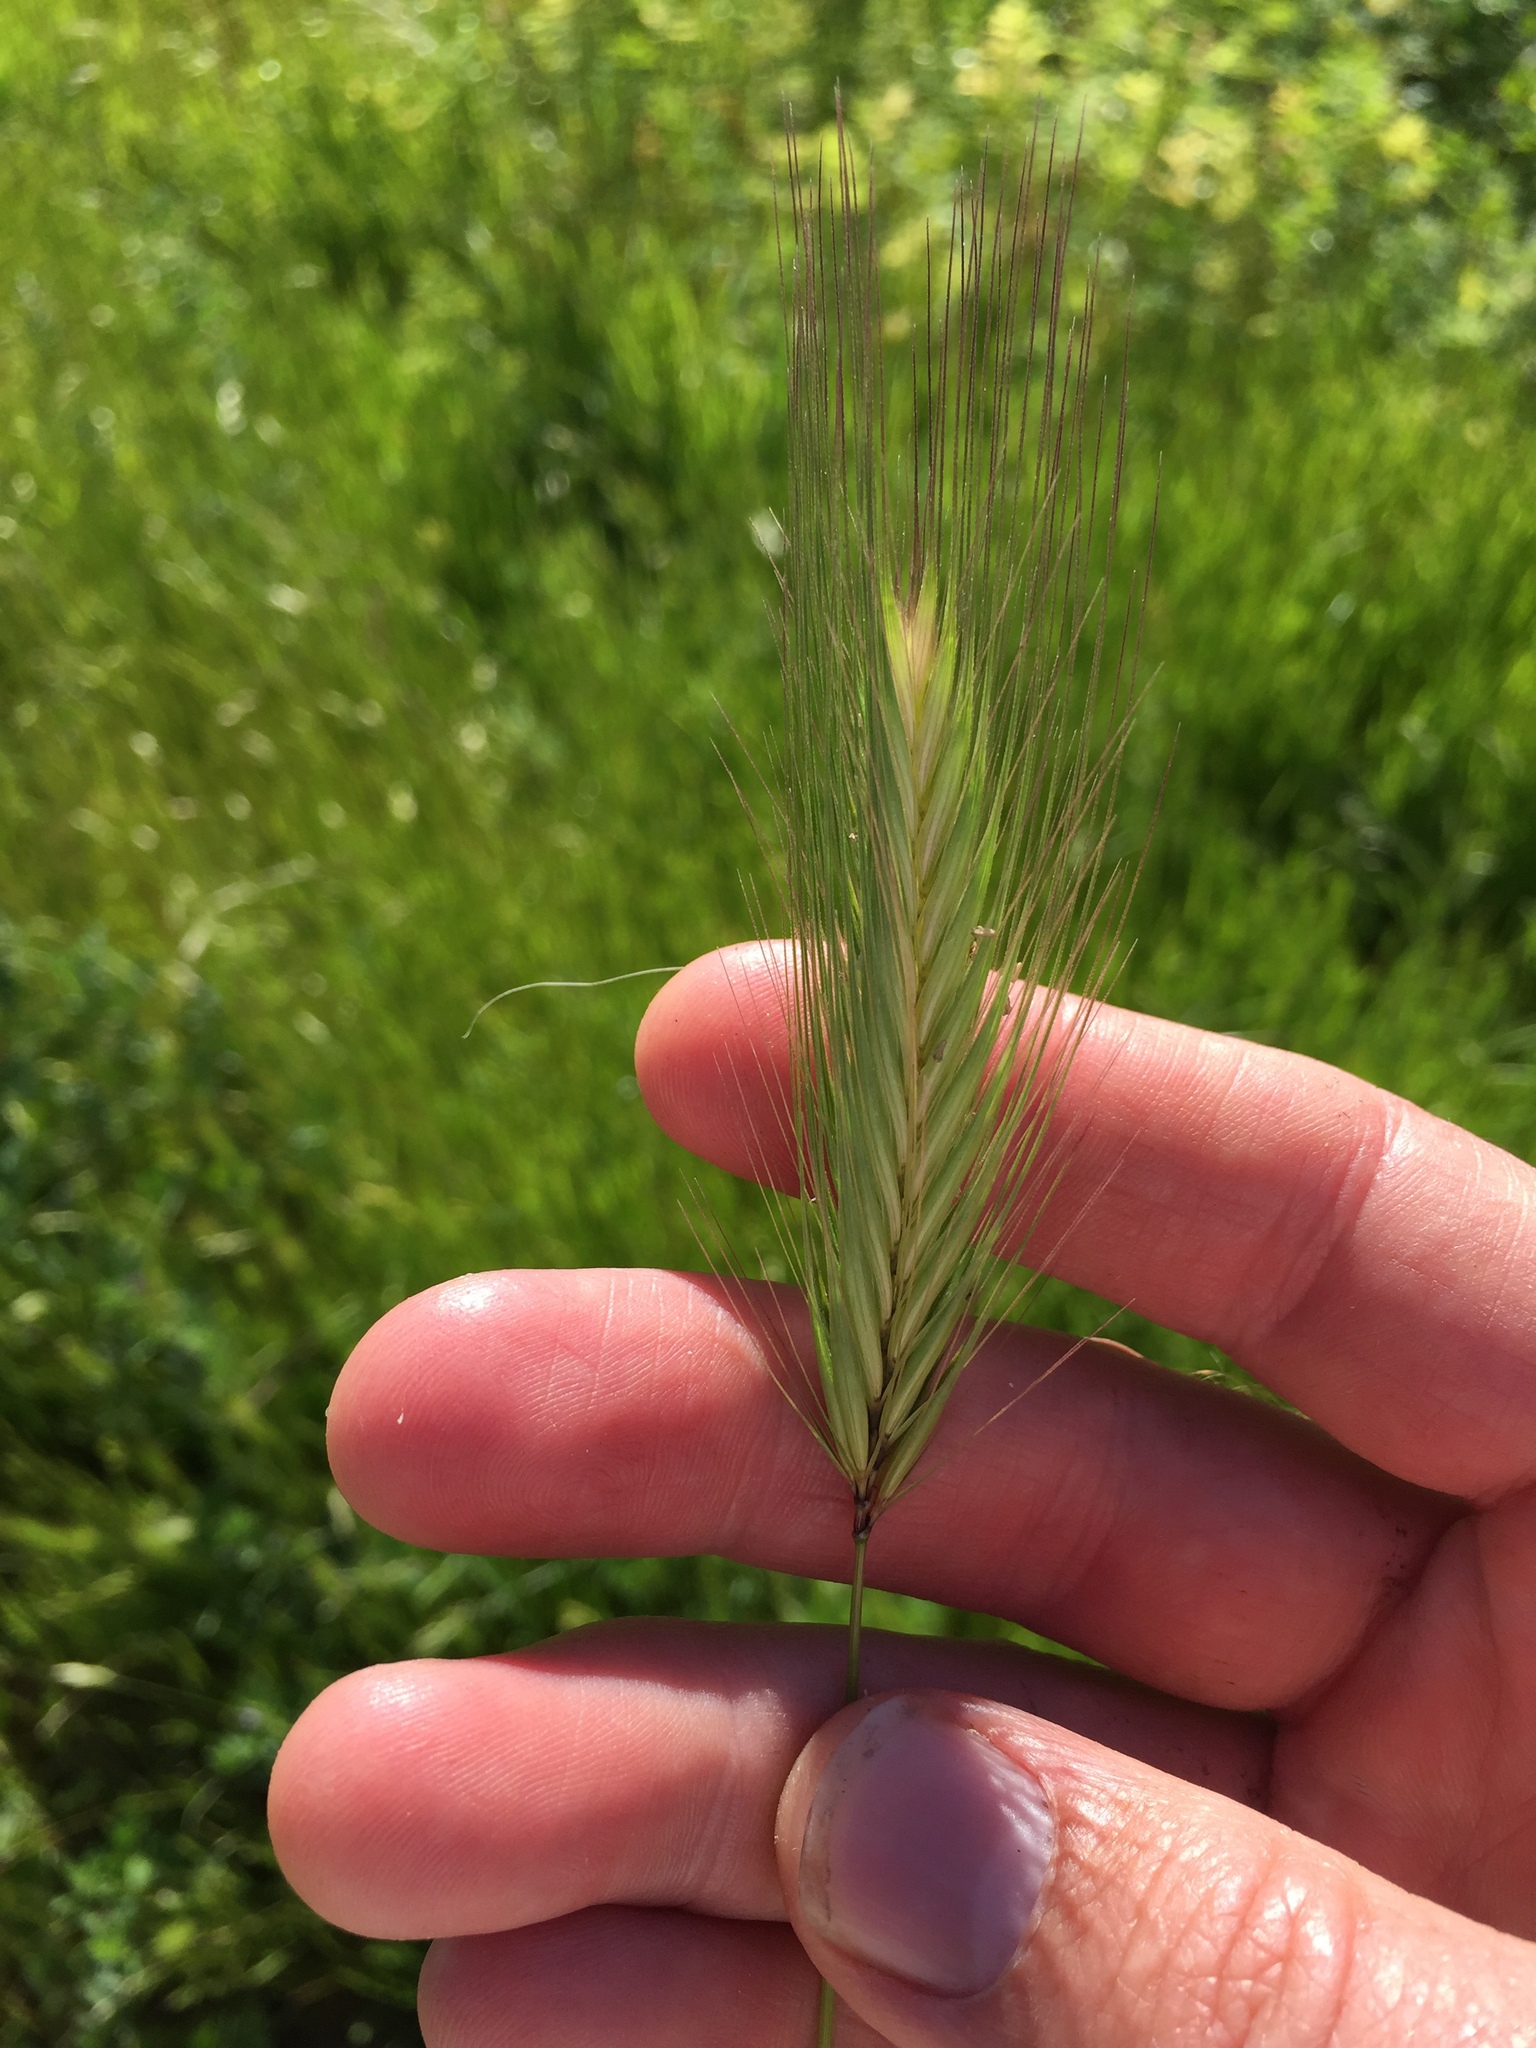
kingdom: Plantae
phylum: Tracheophyta
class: Liliopsida
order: Poales
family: Poaceae
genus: Hordeum
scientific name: Hordeum murinum
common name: Wall barley
